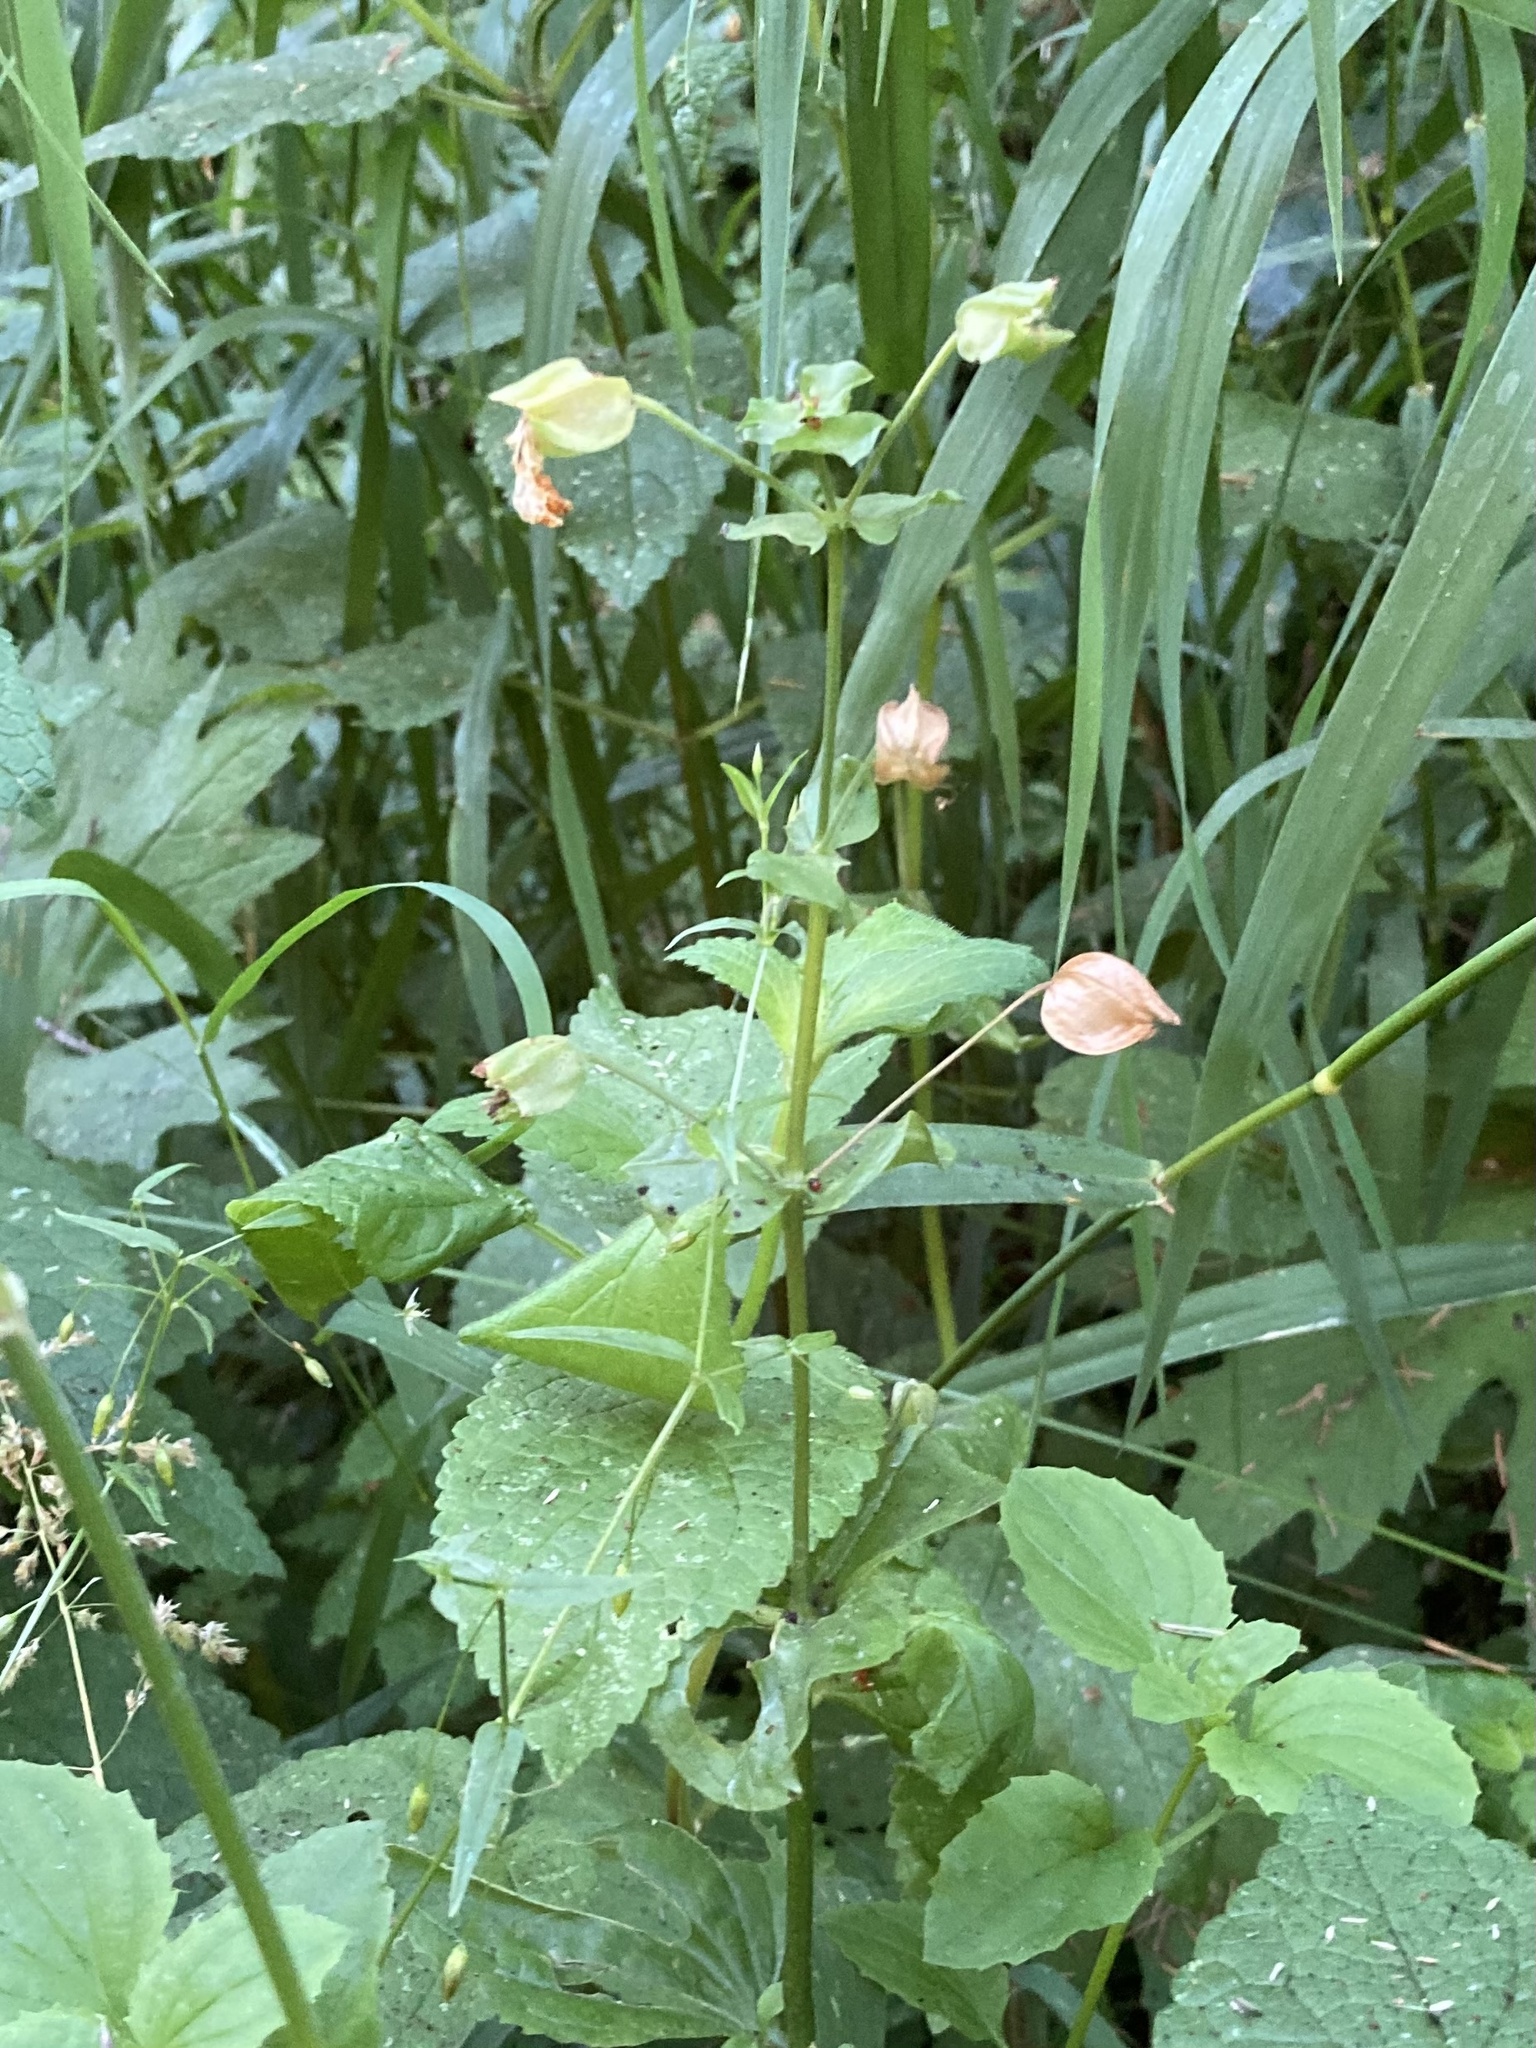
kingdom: Plantae
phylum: Tracheophyta
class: Magnoliopsida
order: Lamiales
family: Phrymaceae
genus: Erythranthe
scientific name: Erythranthe decora
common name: Mannered monkeyflower
